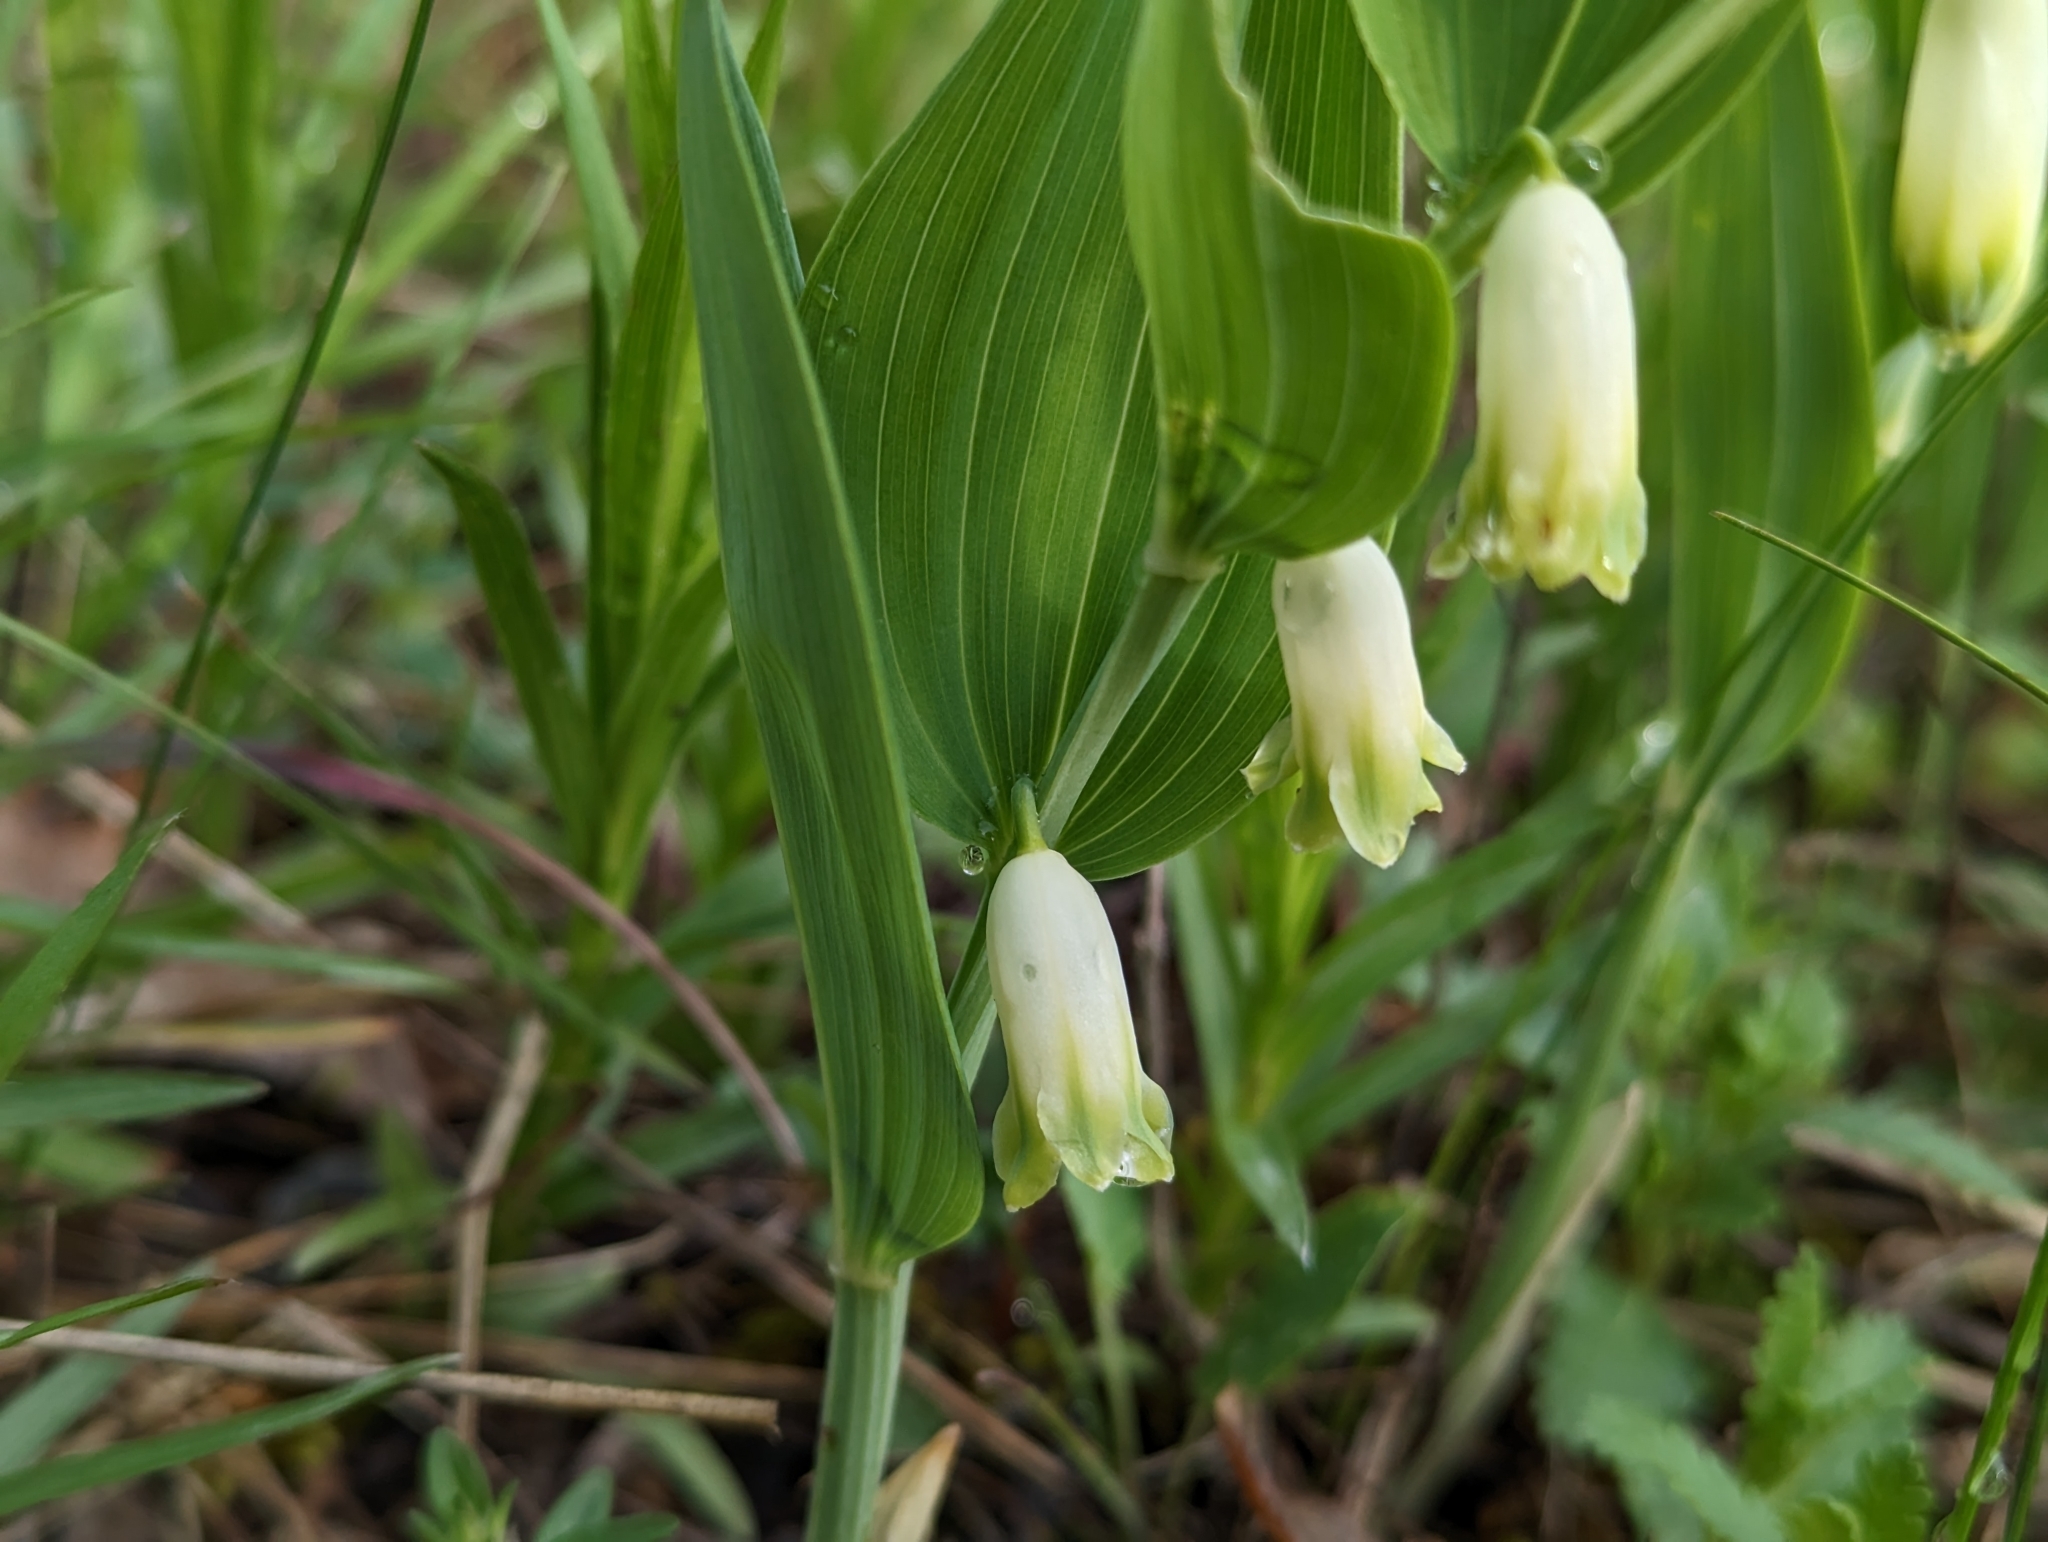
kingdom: Plantae
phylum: Tracheophyta
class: Liliopsida
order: Asparagales
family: Asparagaceae
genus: Polygonatum
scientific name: Polygonatum odoratum
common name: Angular solomon's-seal
